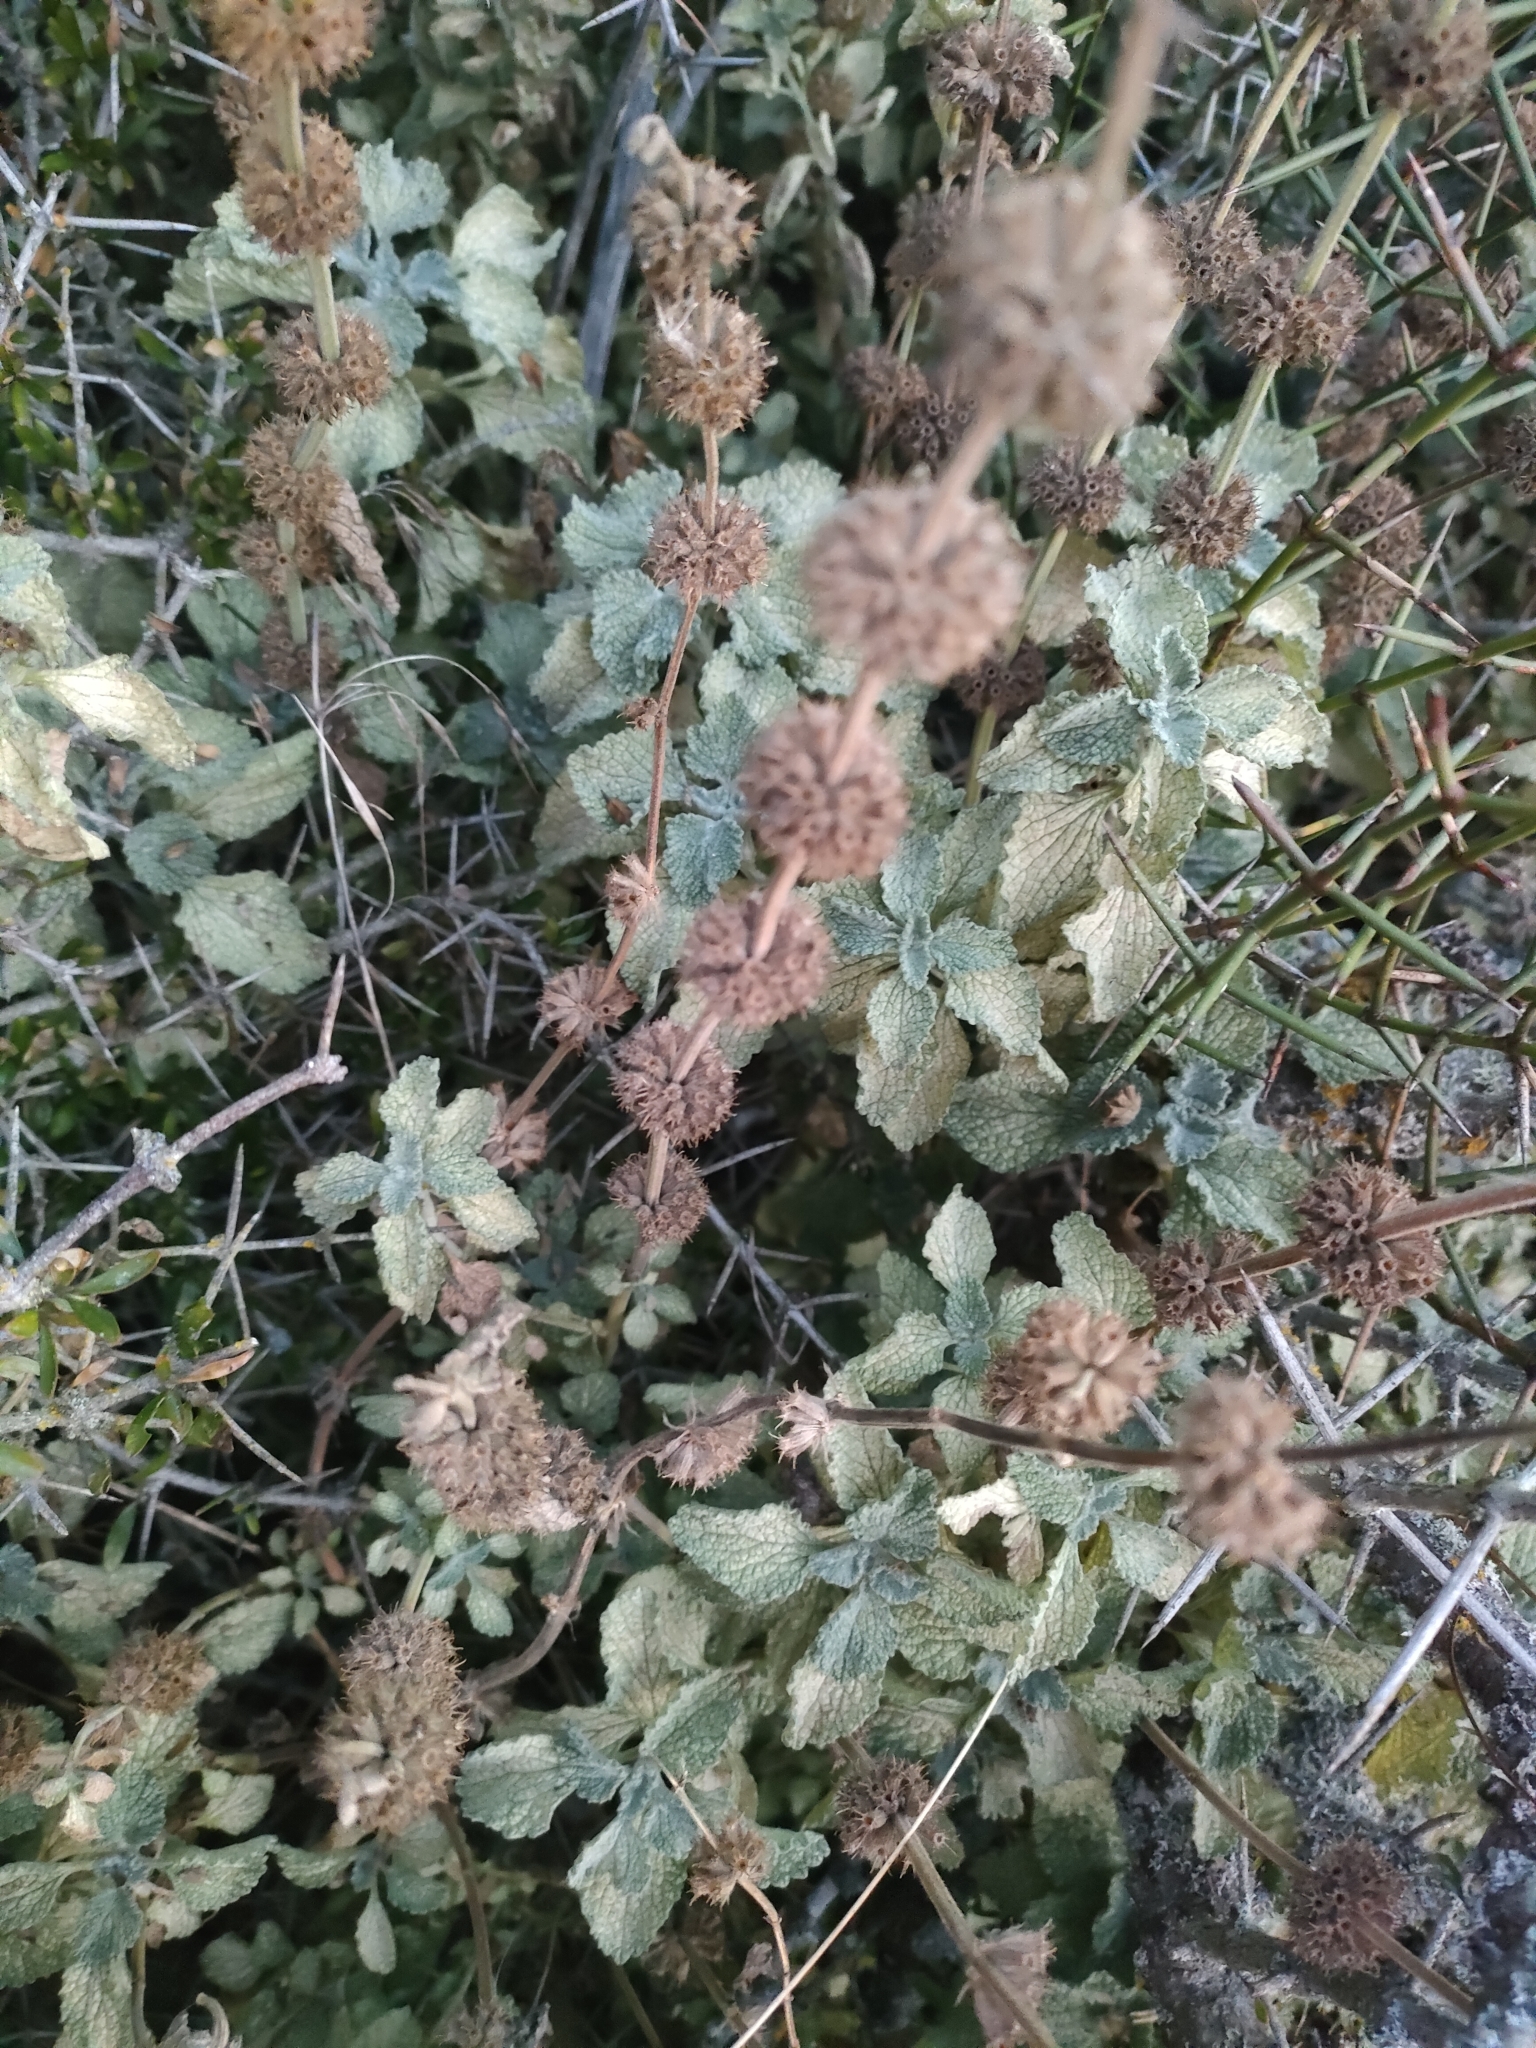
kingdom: Plantae
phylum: Tracheophyta
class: Magnoliopsida
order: Lamiales
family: Lamiaceae
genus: Marrubium
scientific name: Marrubium vulgare
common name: Horehound
